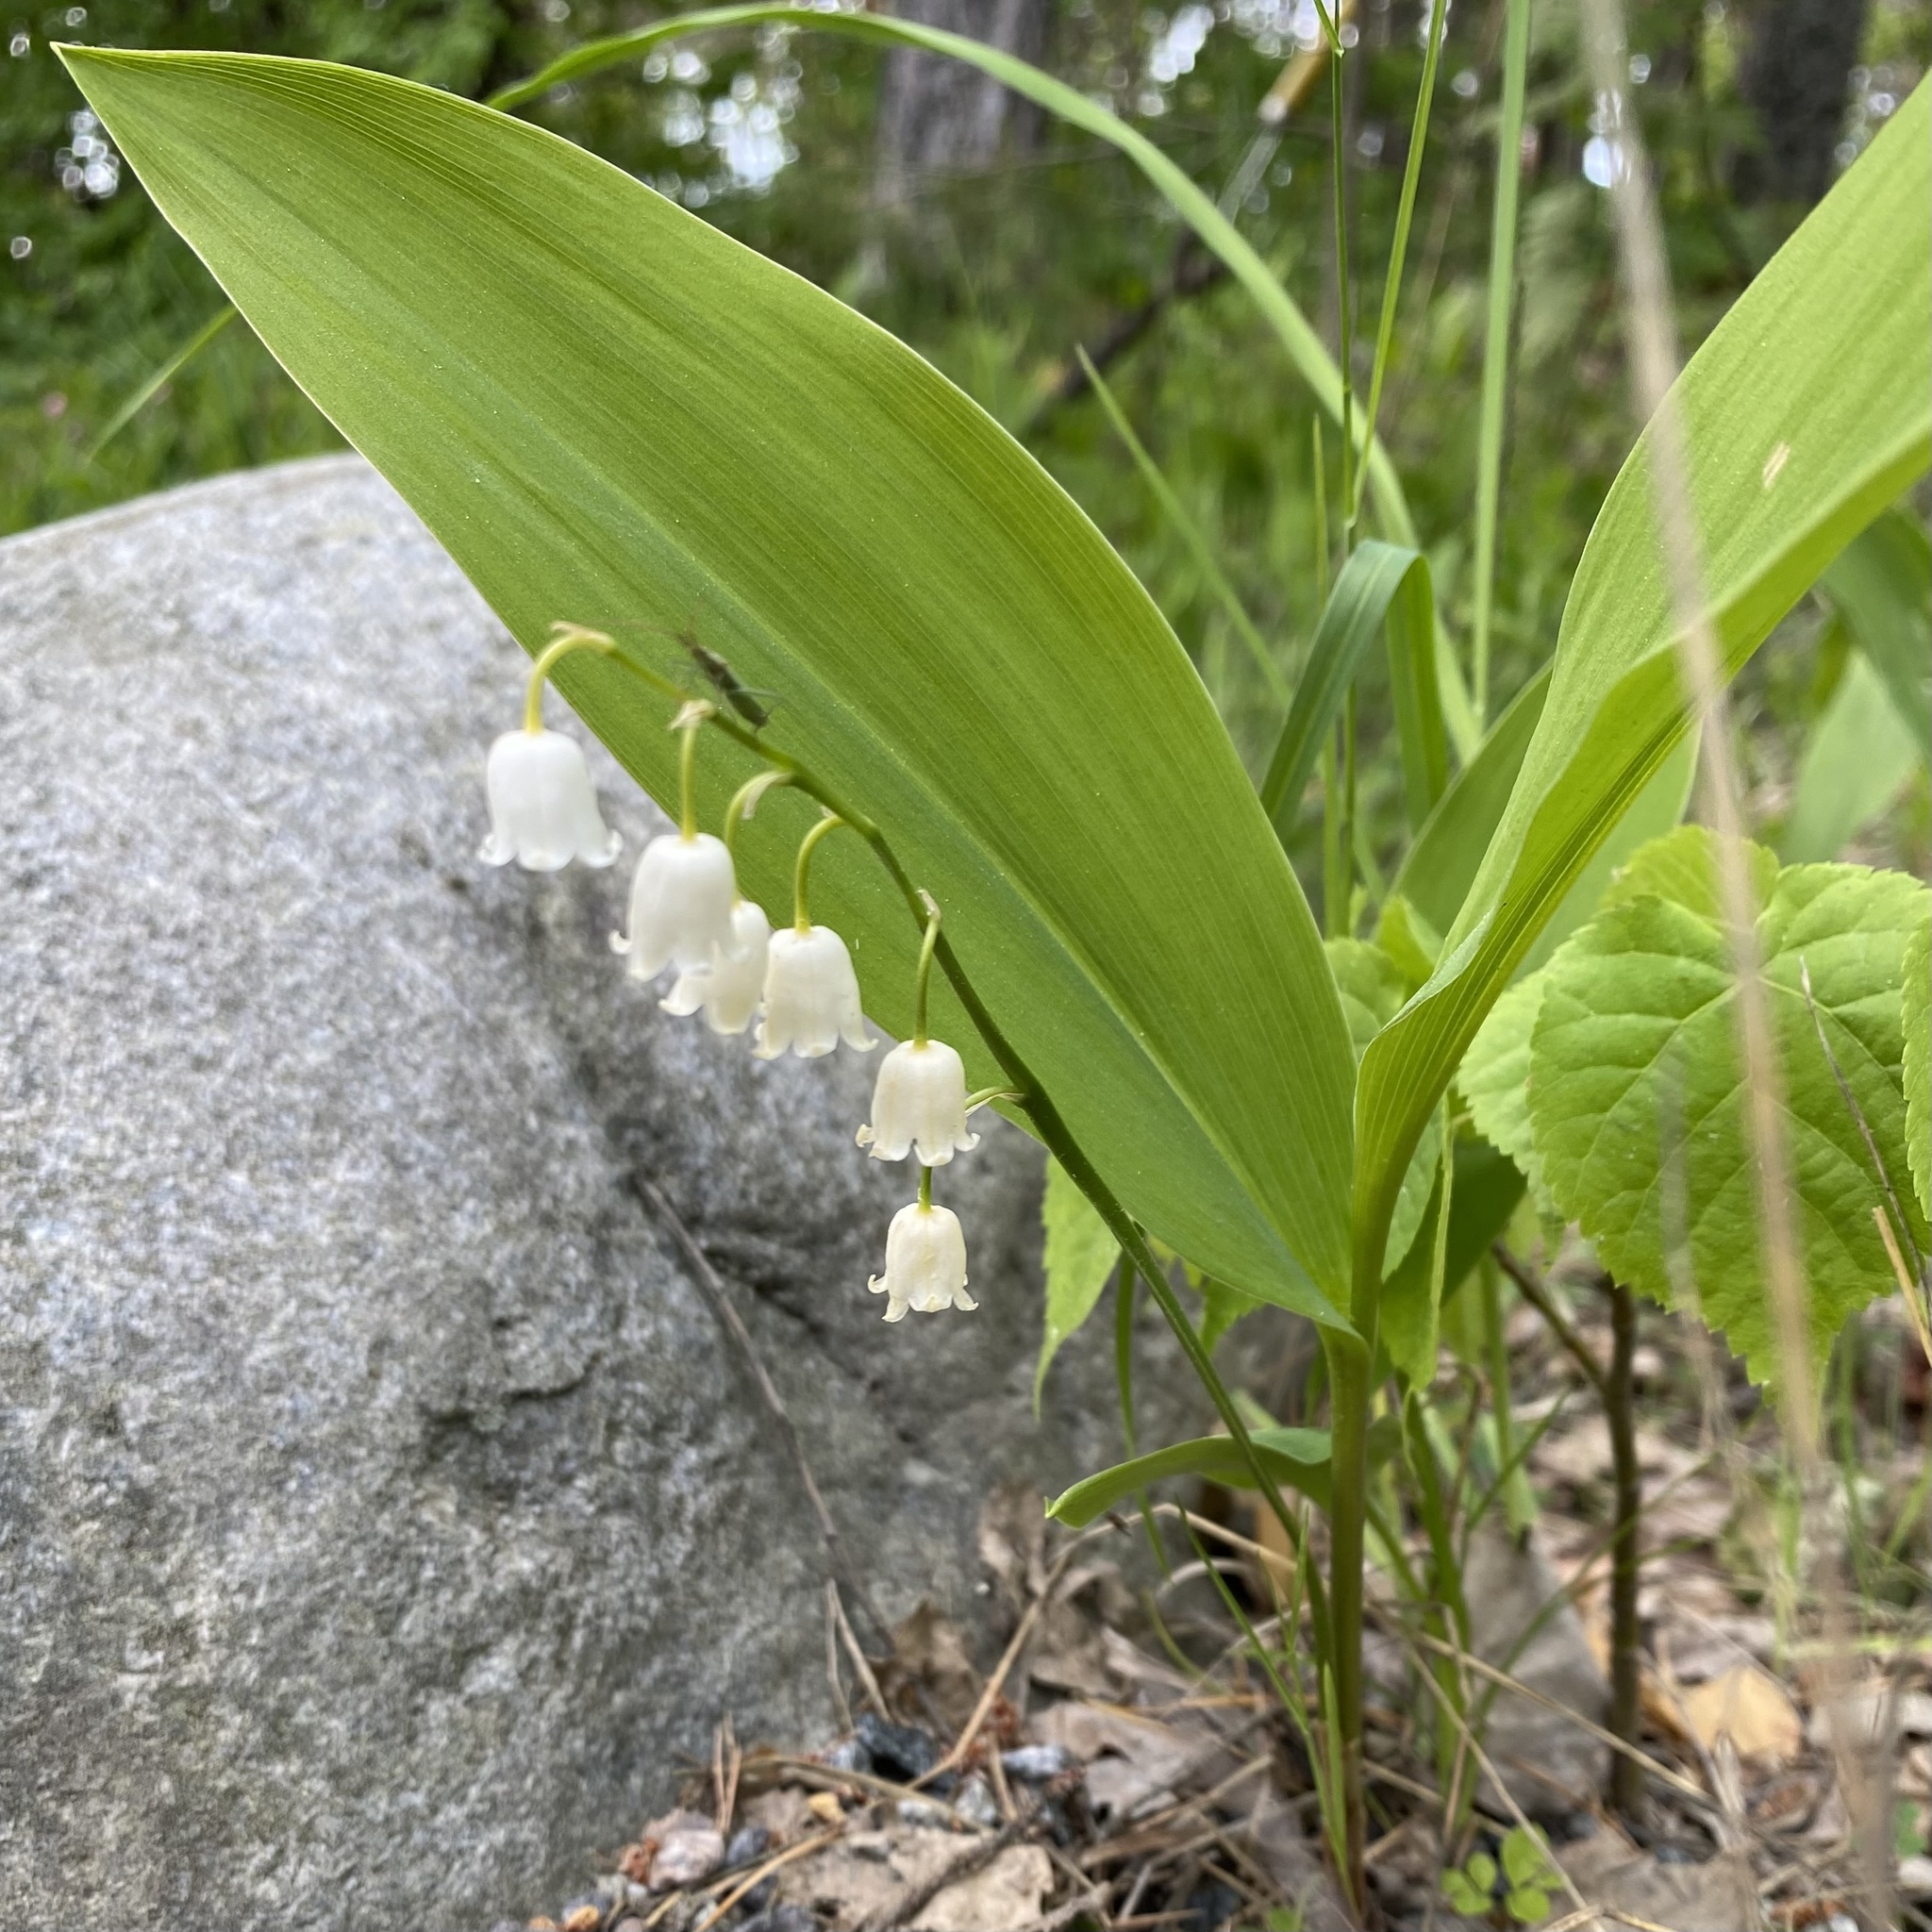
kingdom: Plantae
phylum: Tracheophyta
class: Liliopsida
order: Asparagales
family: Asparagaceae
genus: Convallaria
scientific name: Convallaria majalis
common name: Lily-of-the-valley
